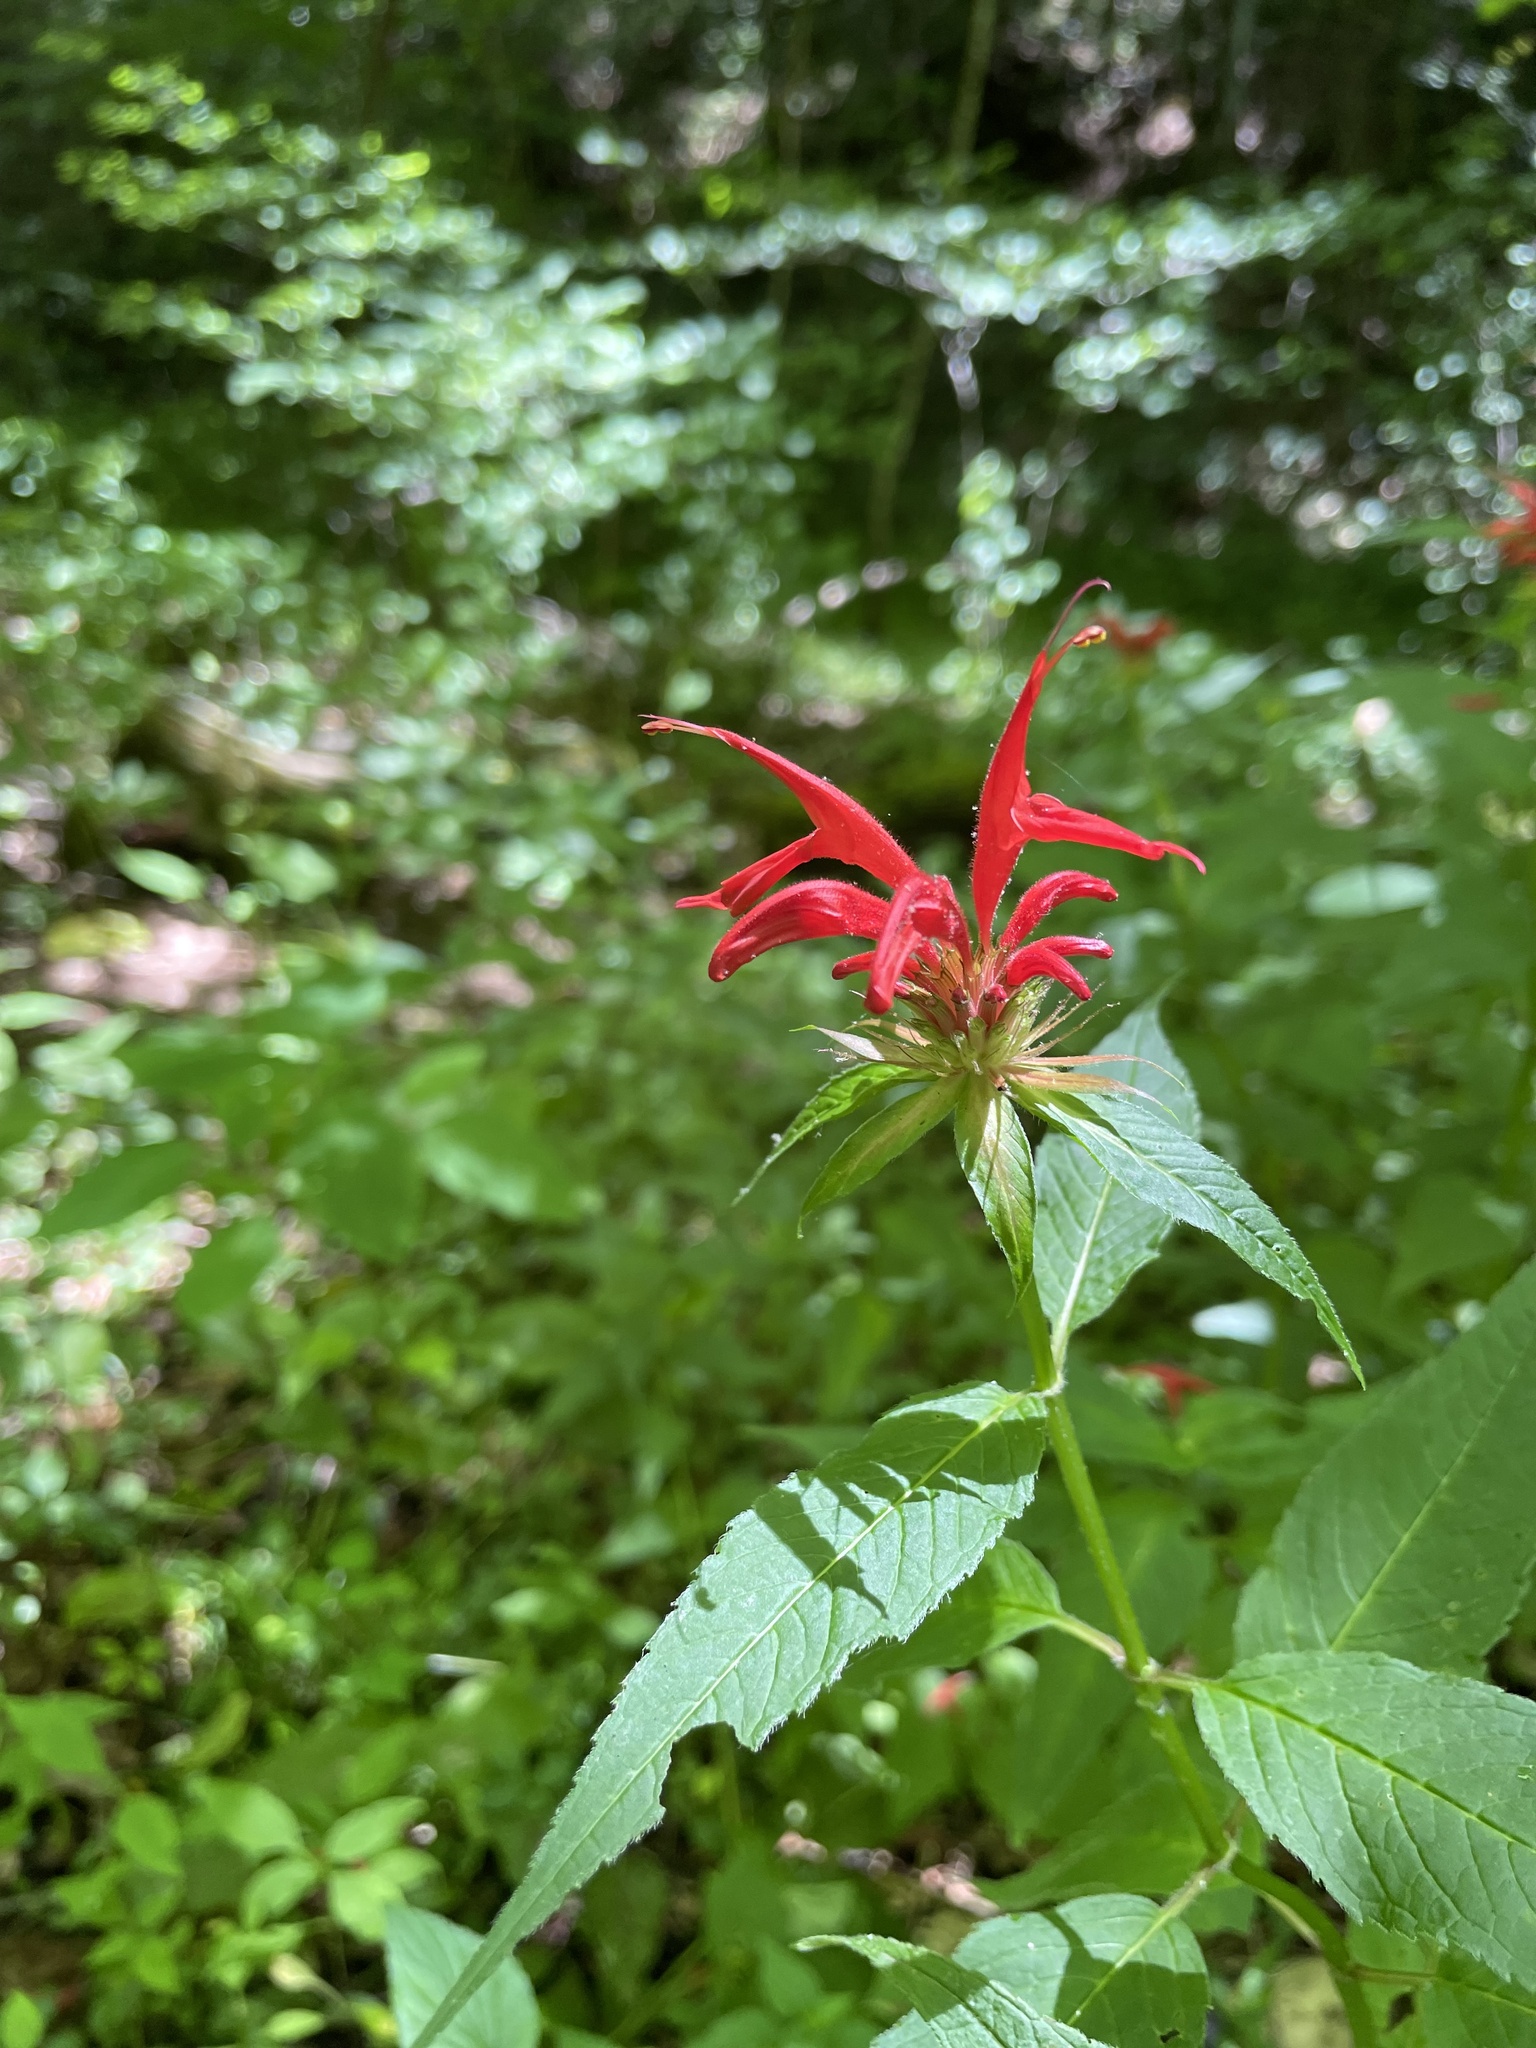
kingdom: Plantae
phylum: Tracheophyta
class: Magnoliopsida
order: Lamiales
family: Lamiaceae
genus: Monarda
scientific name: Monarda didyma
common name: Beebalm
